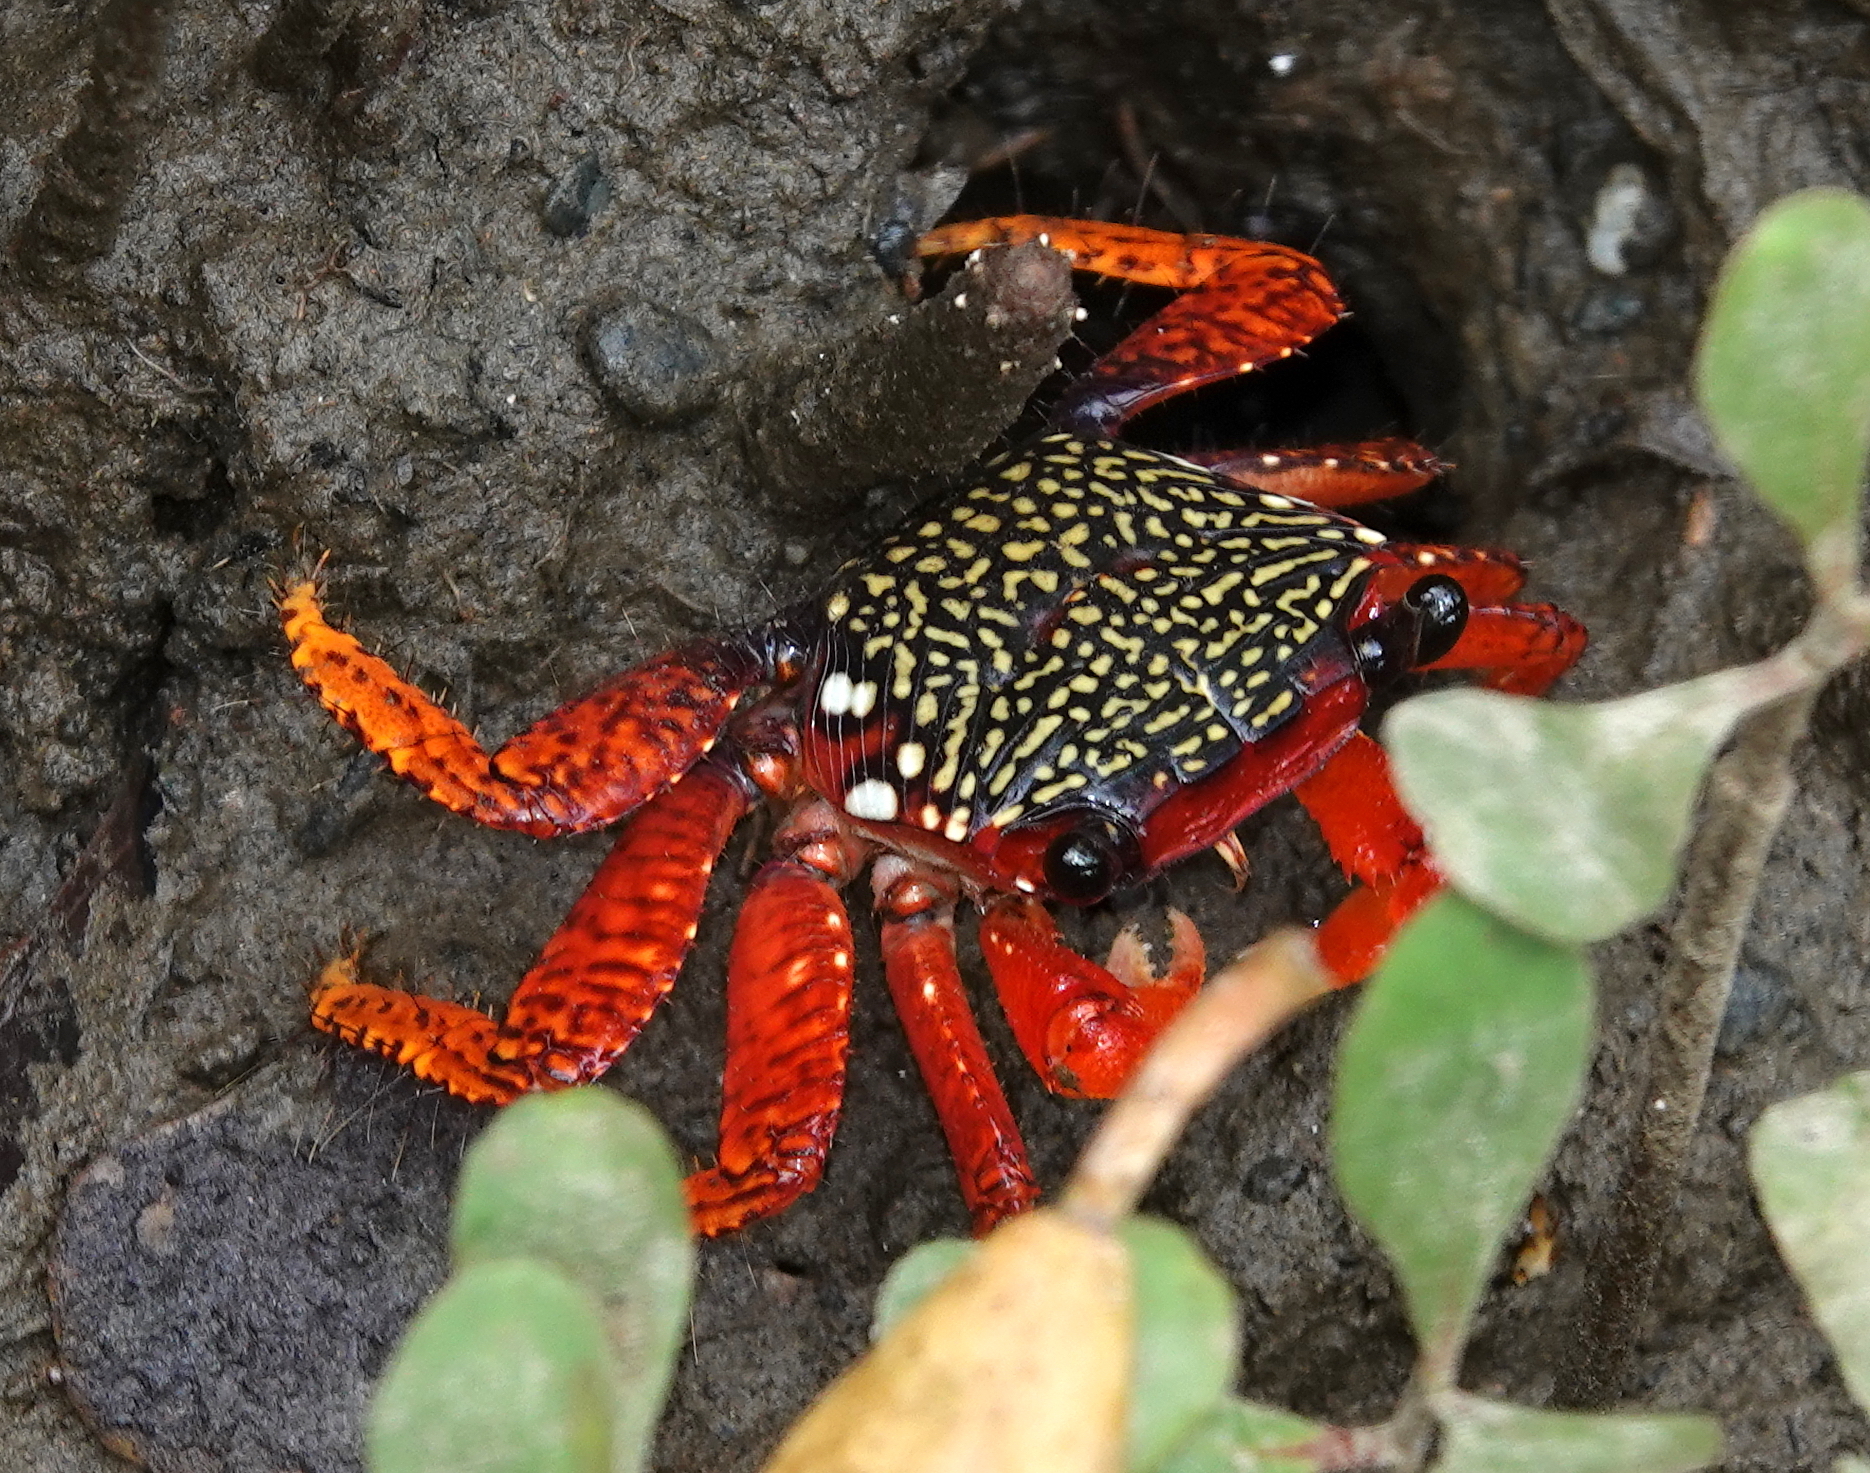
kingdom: Animalia
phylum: Arthropoda
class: Malacostraca
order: Decapoda
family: Grapsidae
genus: Goniopsis
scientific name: Goniopsis pulchra
